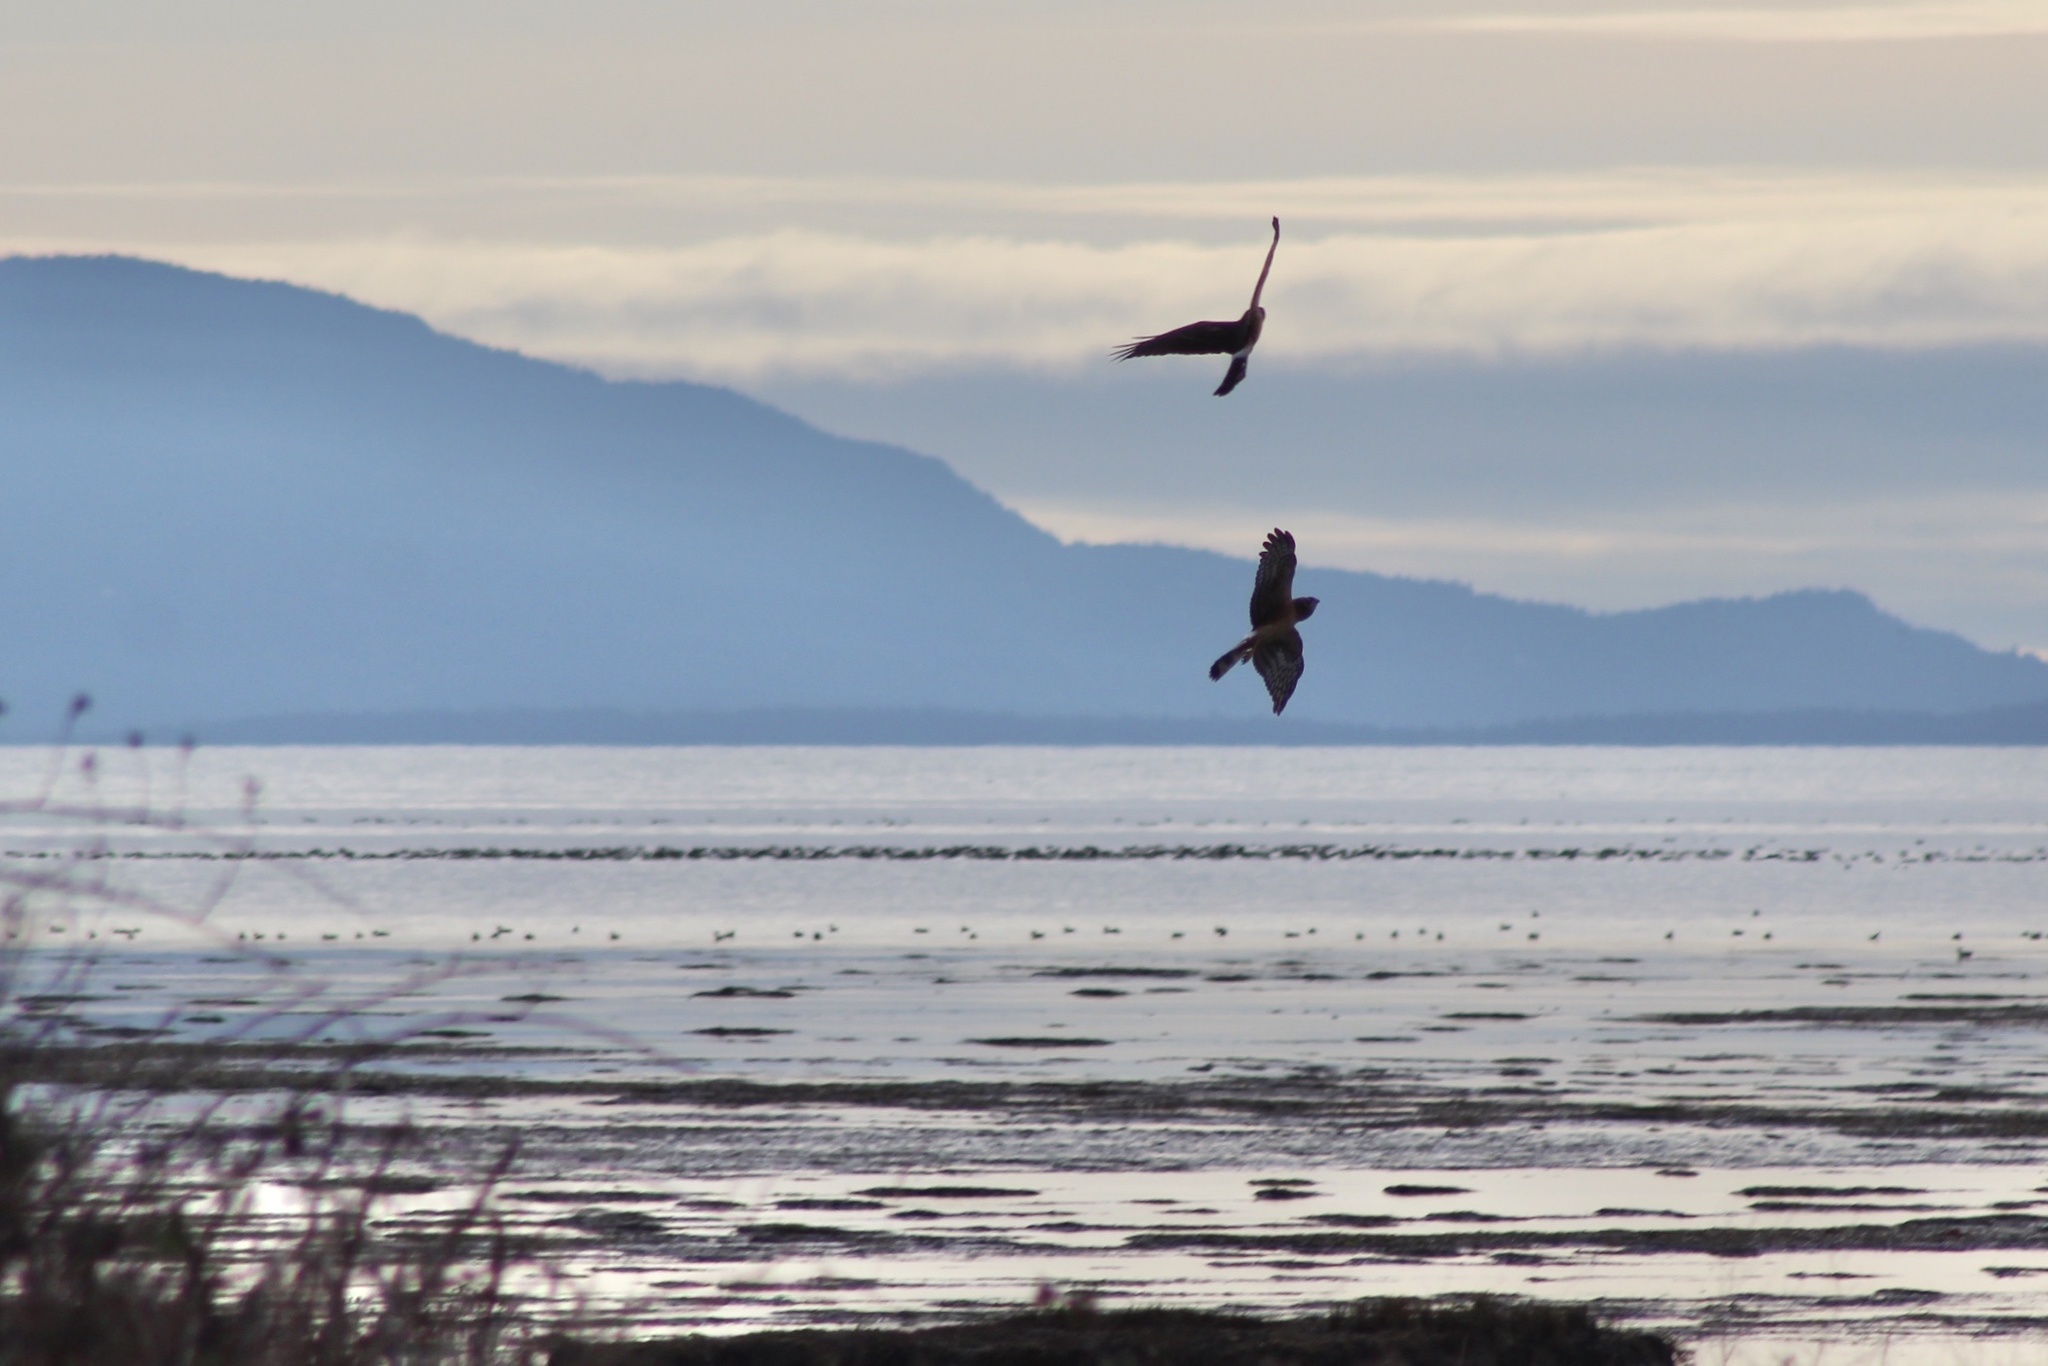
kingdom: Animalia
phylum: Chordata
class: Aves
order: Accipitriformes
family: Accipitridae
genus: Circus
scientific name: Circus cyaneus
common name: Hen harrier
